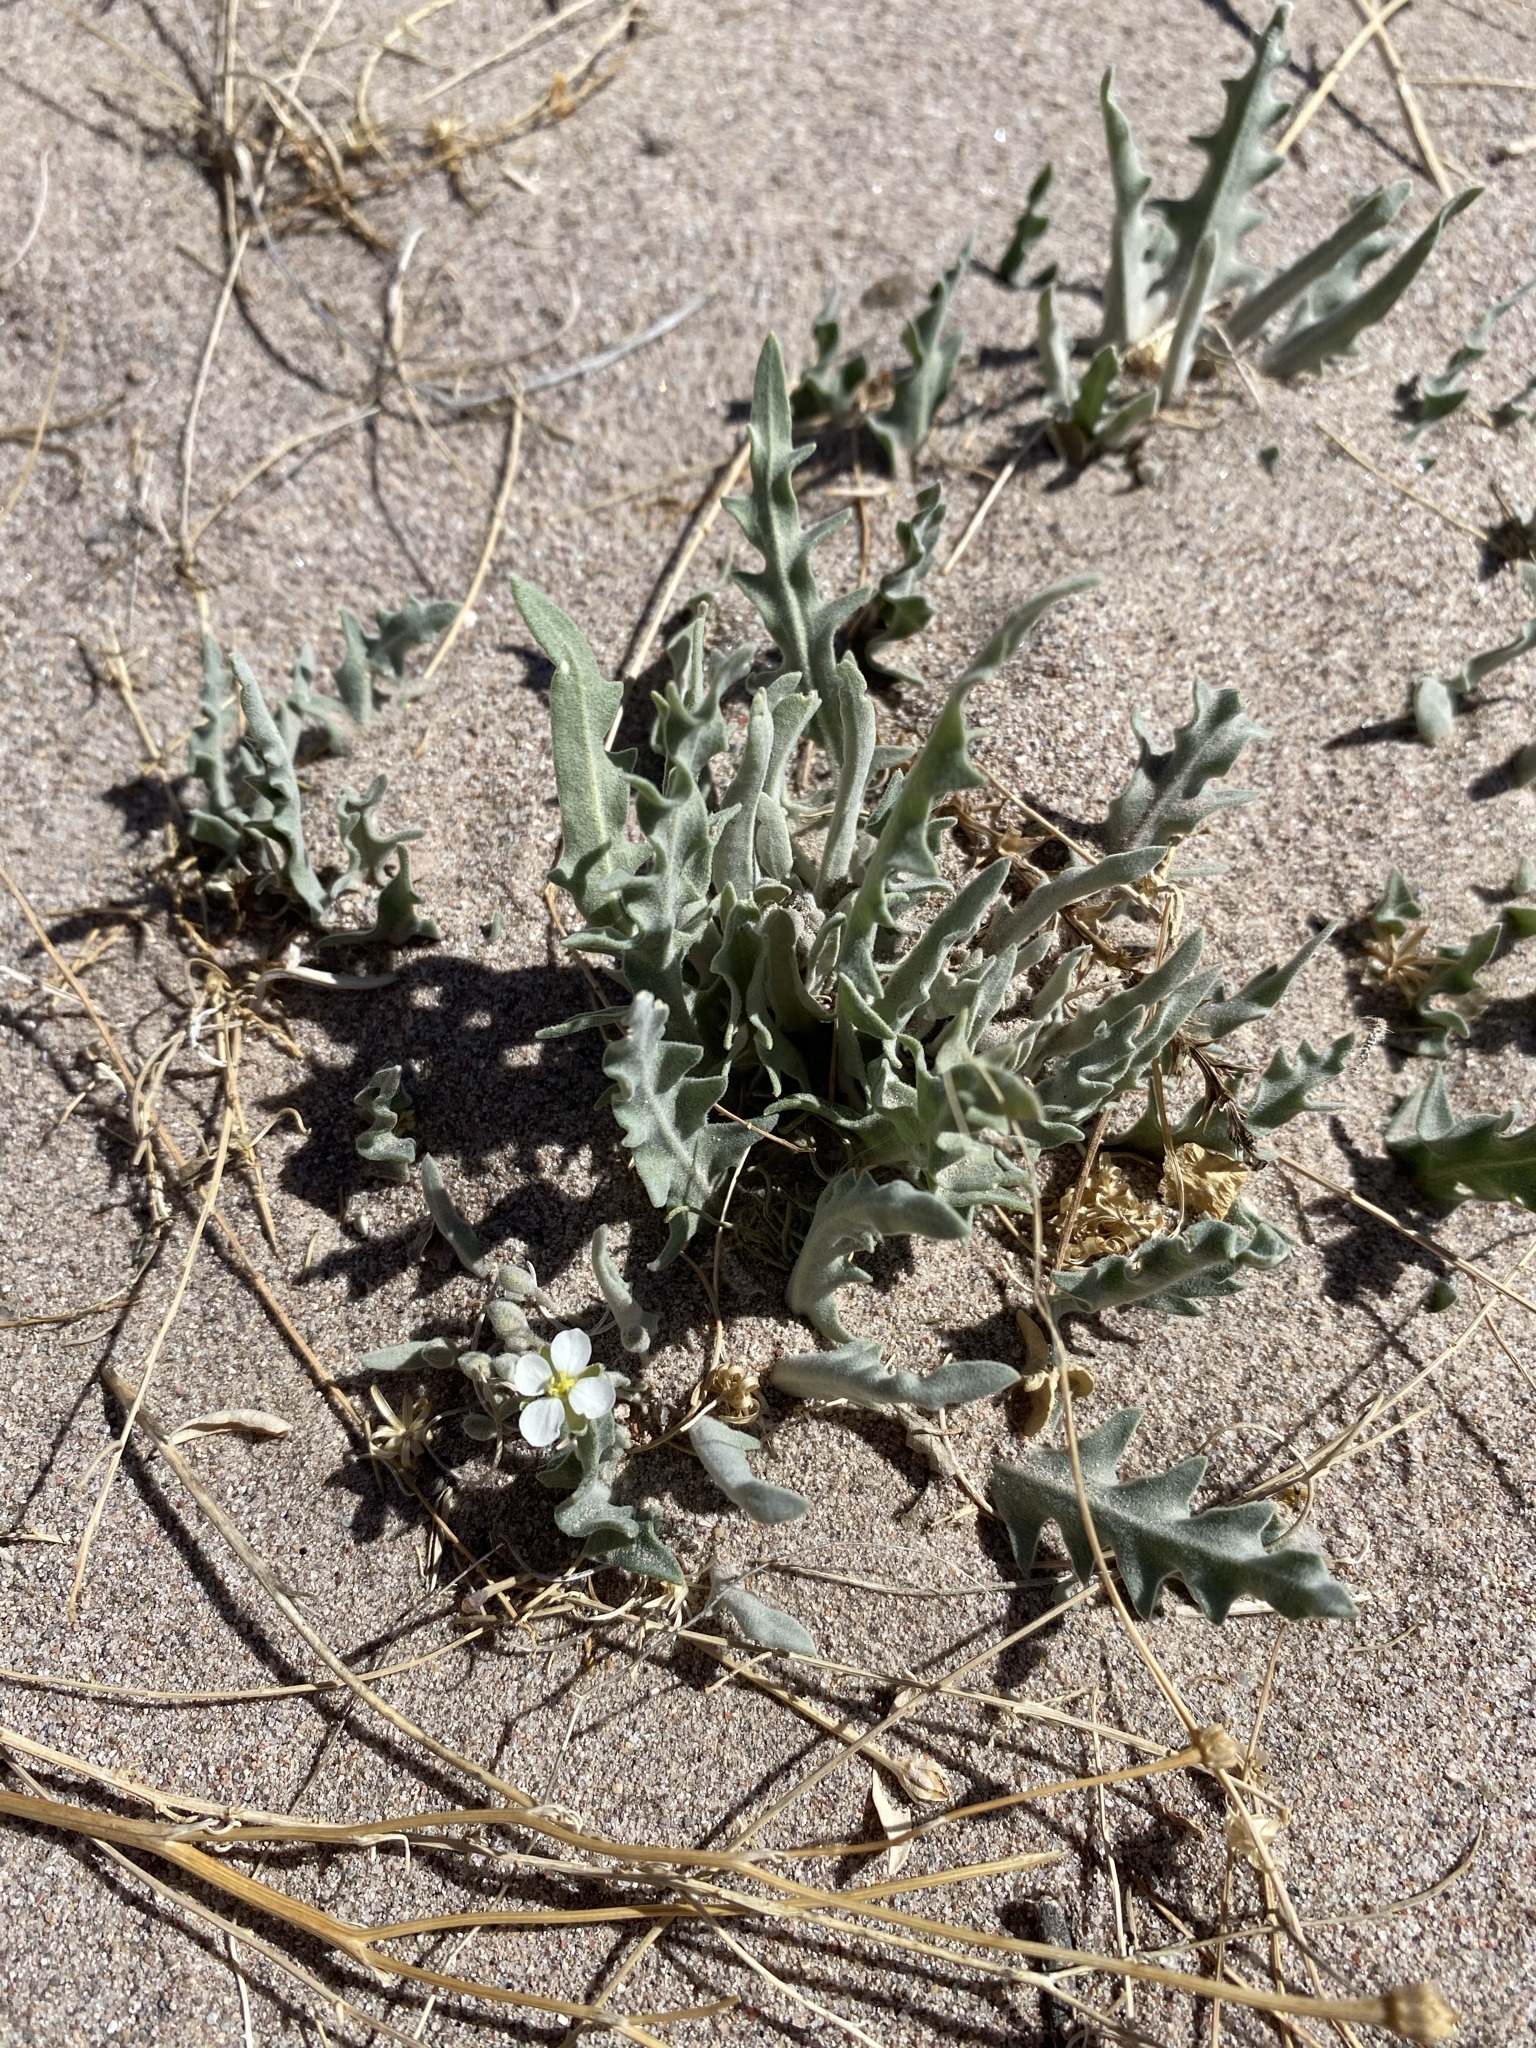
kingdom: Plantae
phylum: Tracheophyta
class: Magnoliopsida
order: Brassicales
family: Brassicaceae
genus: Dimorphocarpa
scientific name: Dimorphocarpa wislizenii
